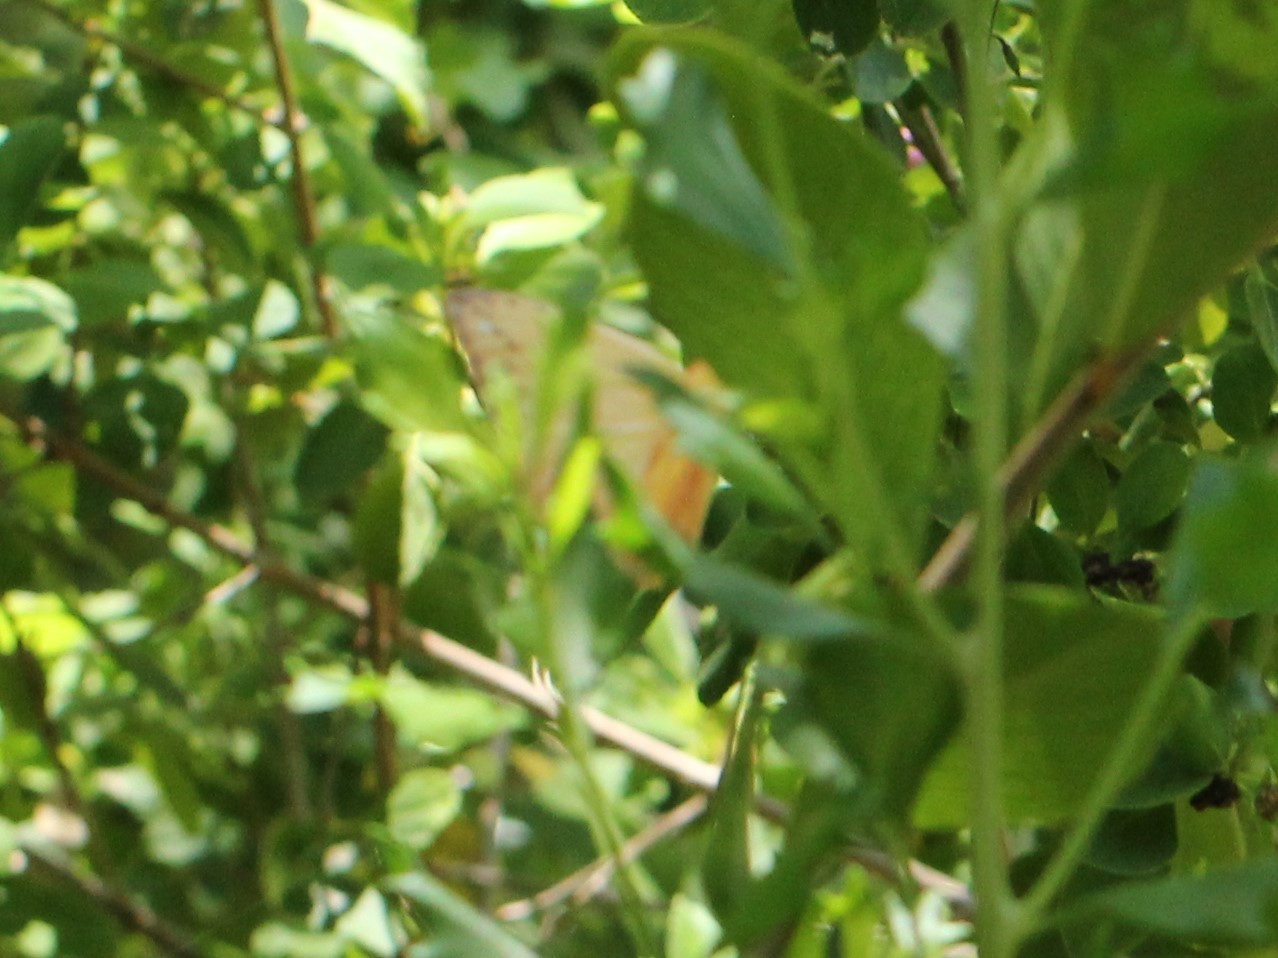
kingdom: Animalia
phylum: Arthropoda
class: Insecta
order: Lepidoptera
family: Pieridae
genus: Phoebis
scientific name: Phoebis philea
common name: Orange-barred giant sulphur
